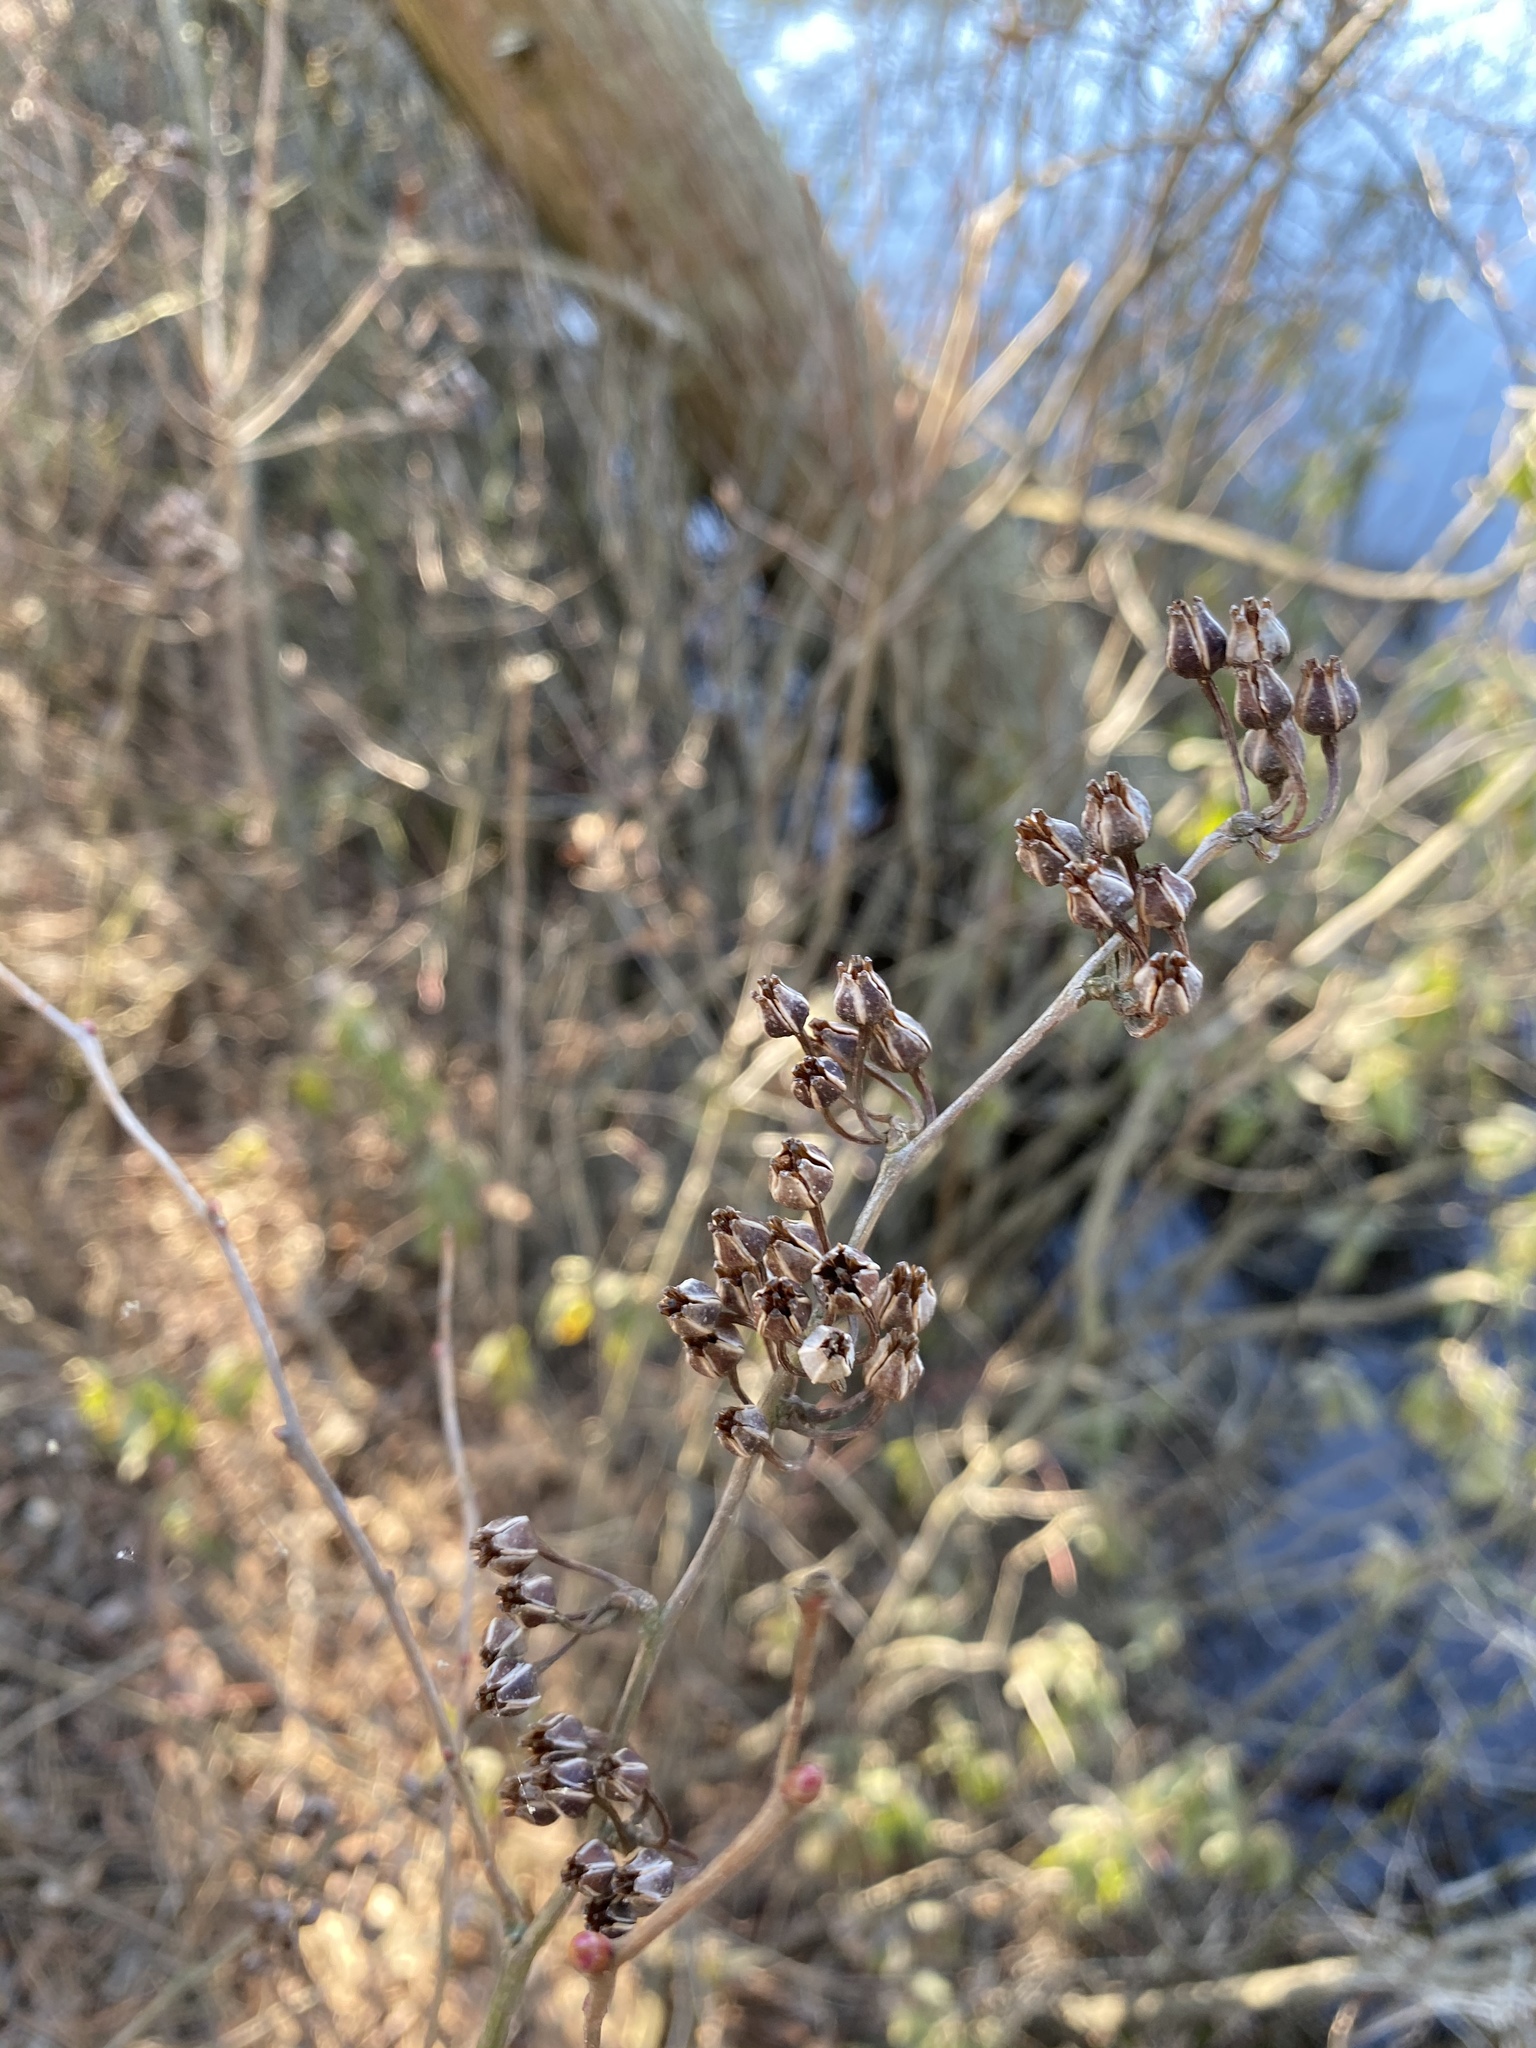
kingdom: Plantae
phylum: Tracheophyta
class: Magnoliopsida
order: Ericales
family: Ericaceae
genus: Lyonia
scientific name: Lyonia mariana
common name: Staggerbush
